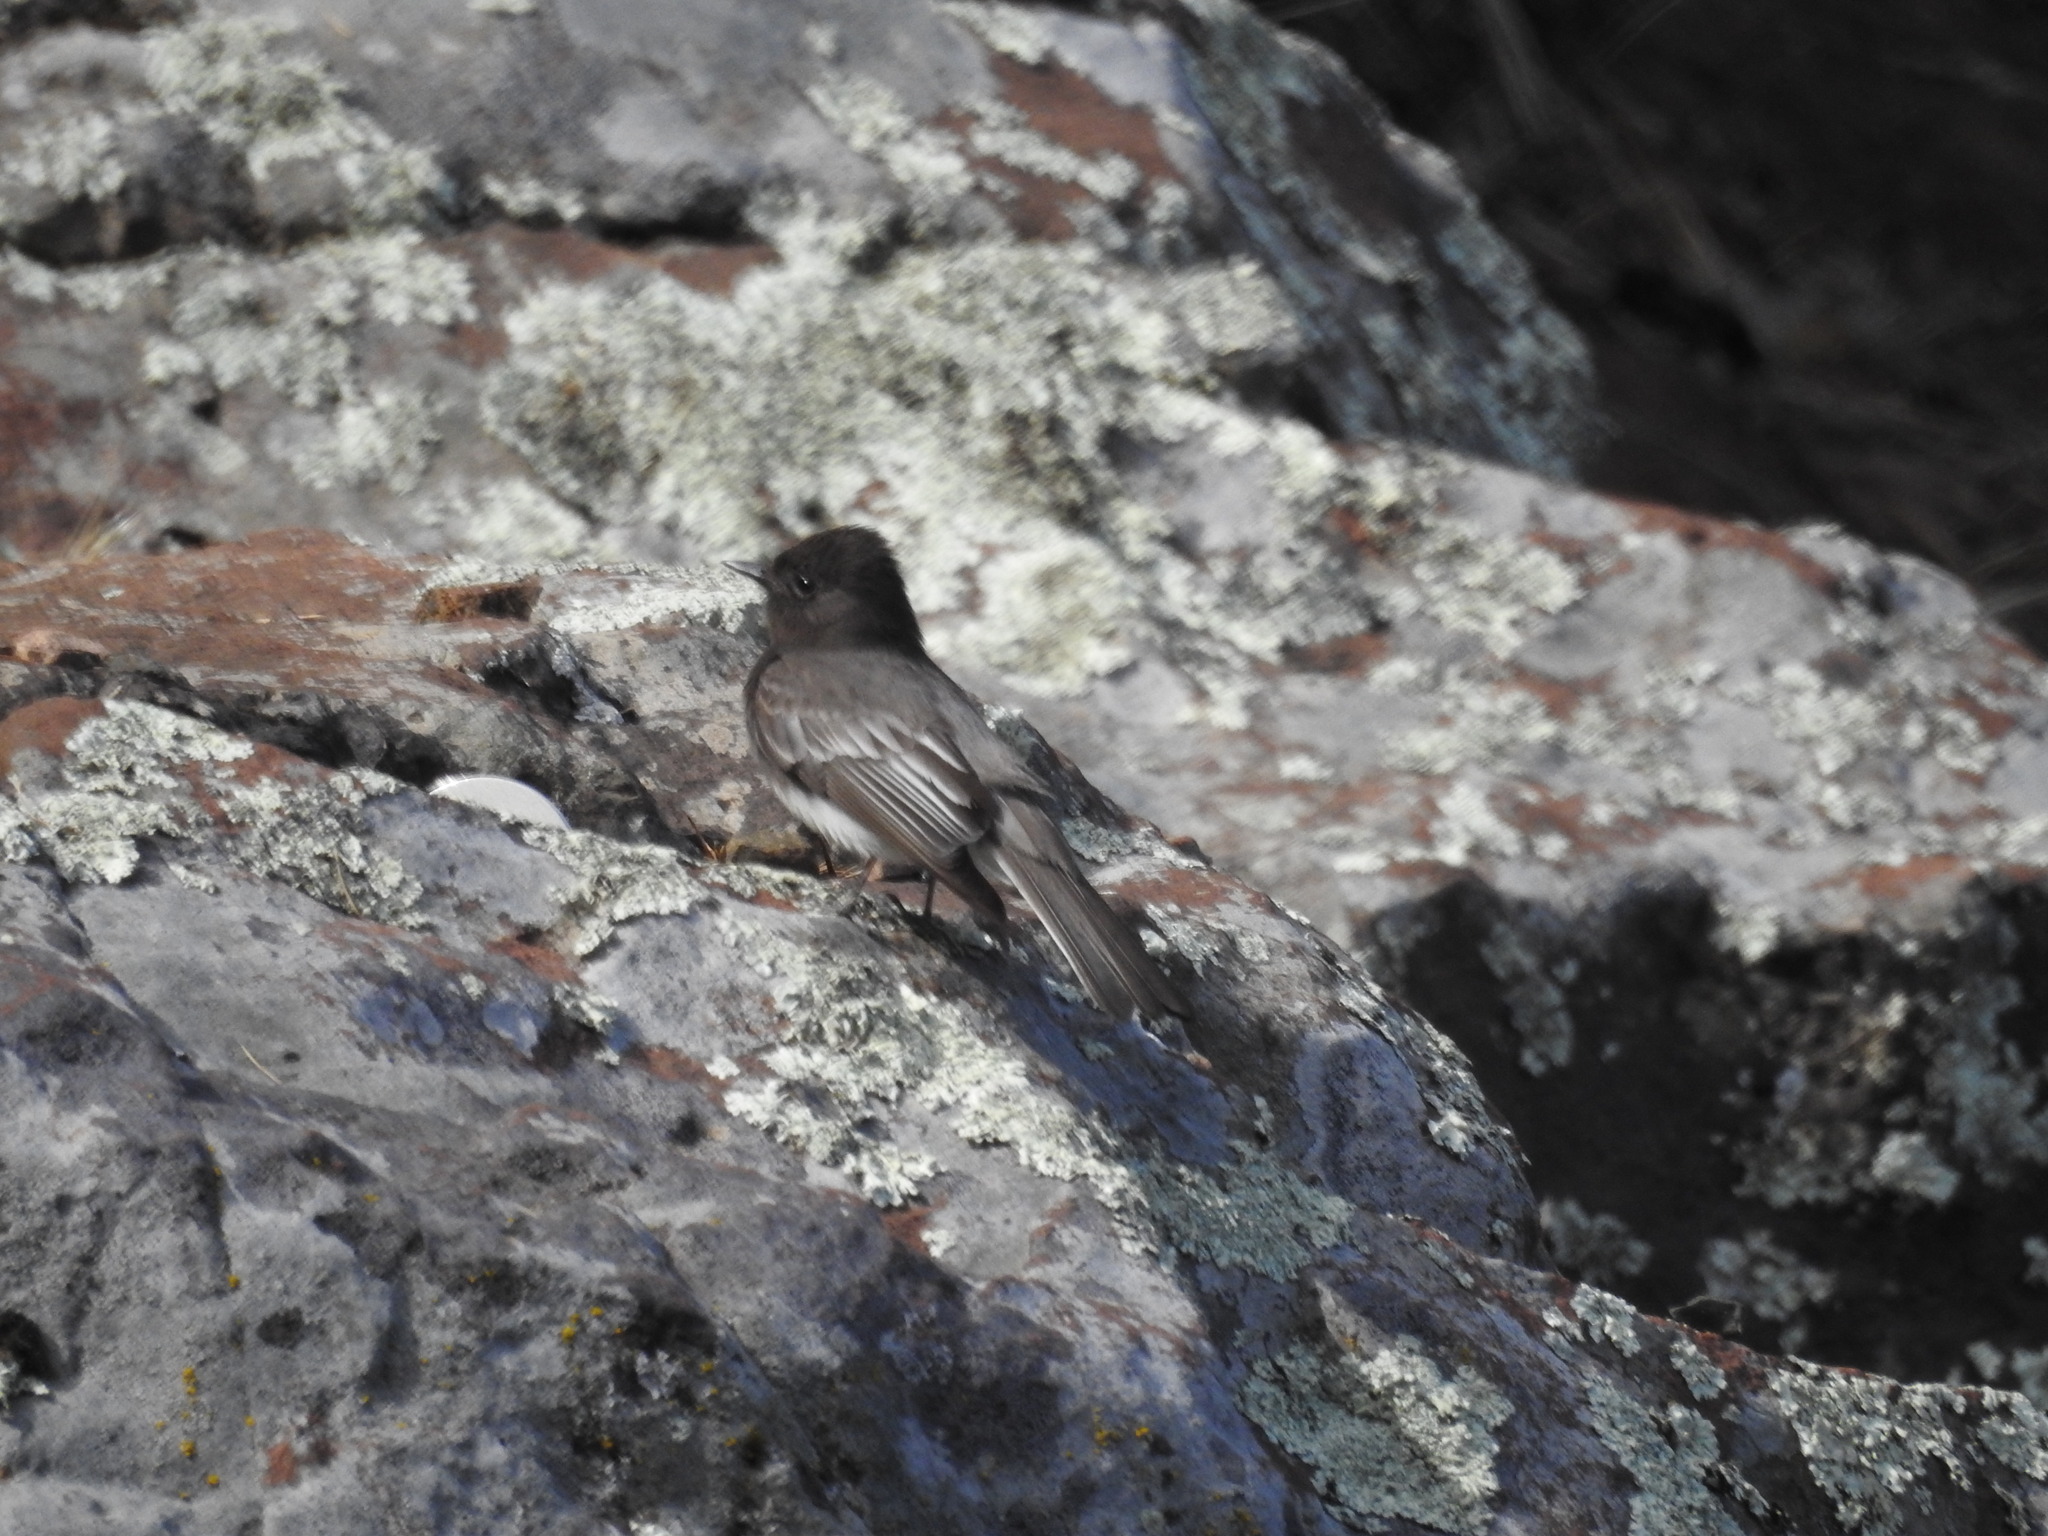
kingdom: Animalia
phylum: Chordata
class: Aves
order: Passeriformes
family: Tyrannidae
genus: Sayornis
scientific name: Sayornis nigricans
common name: Black phoebe
